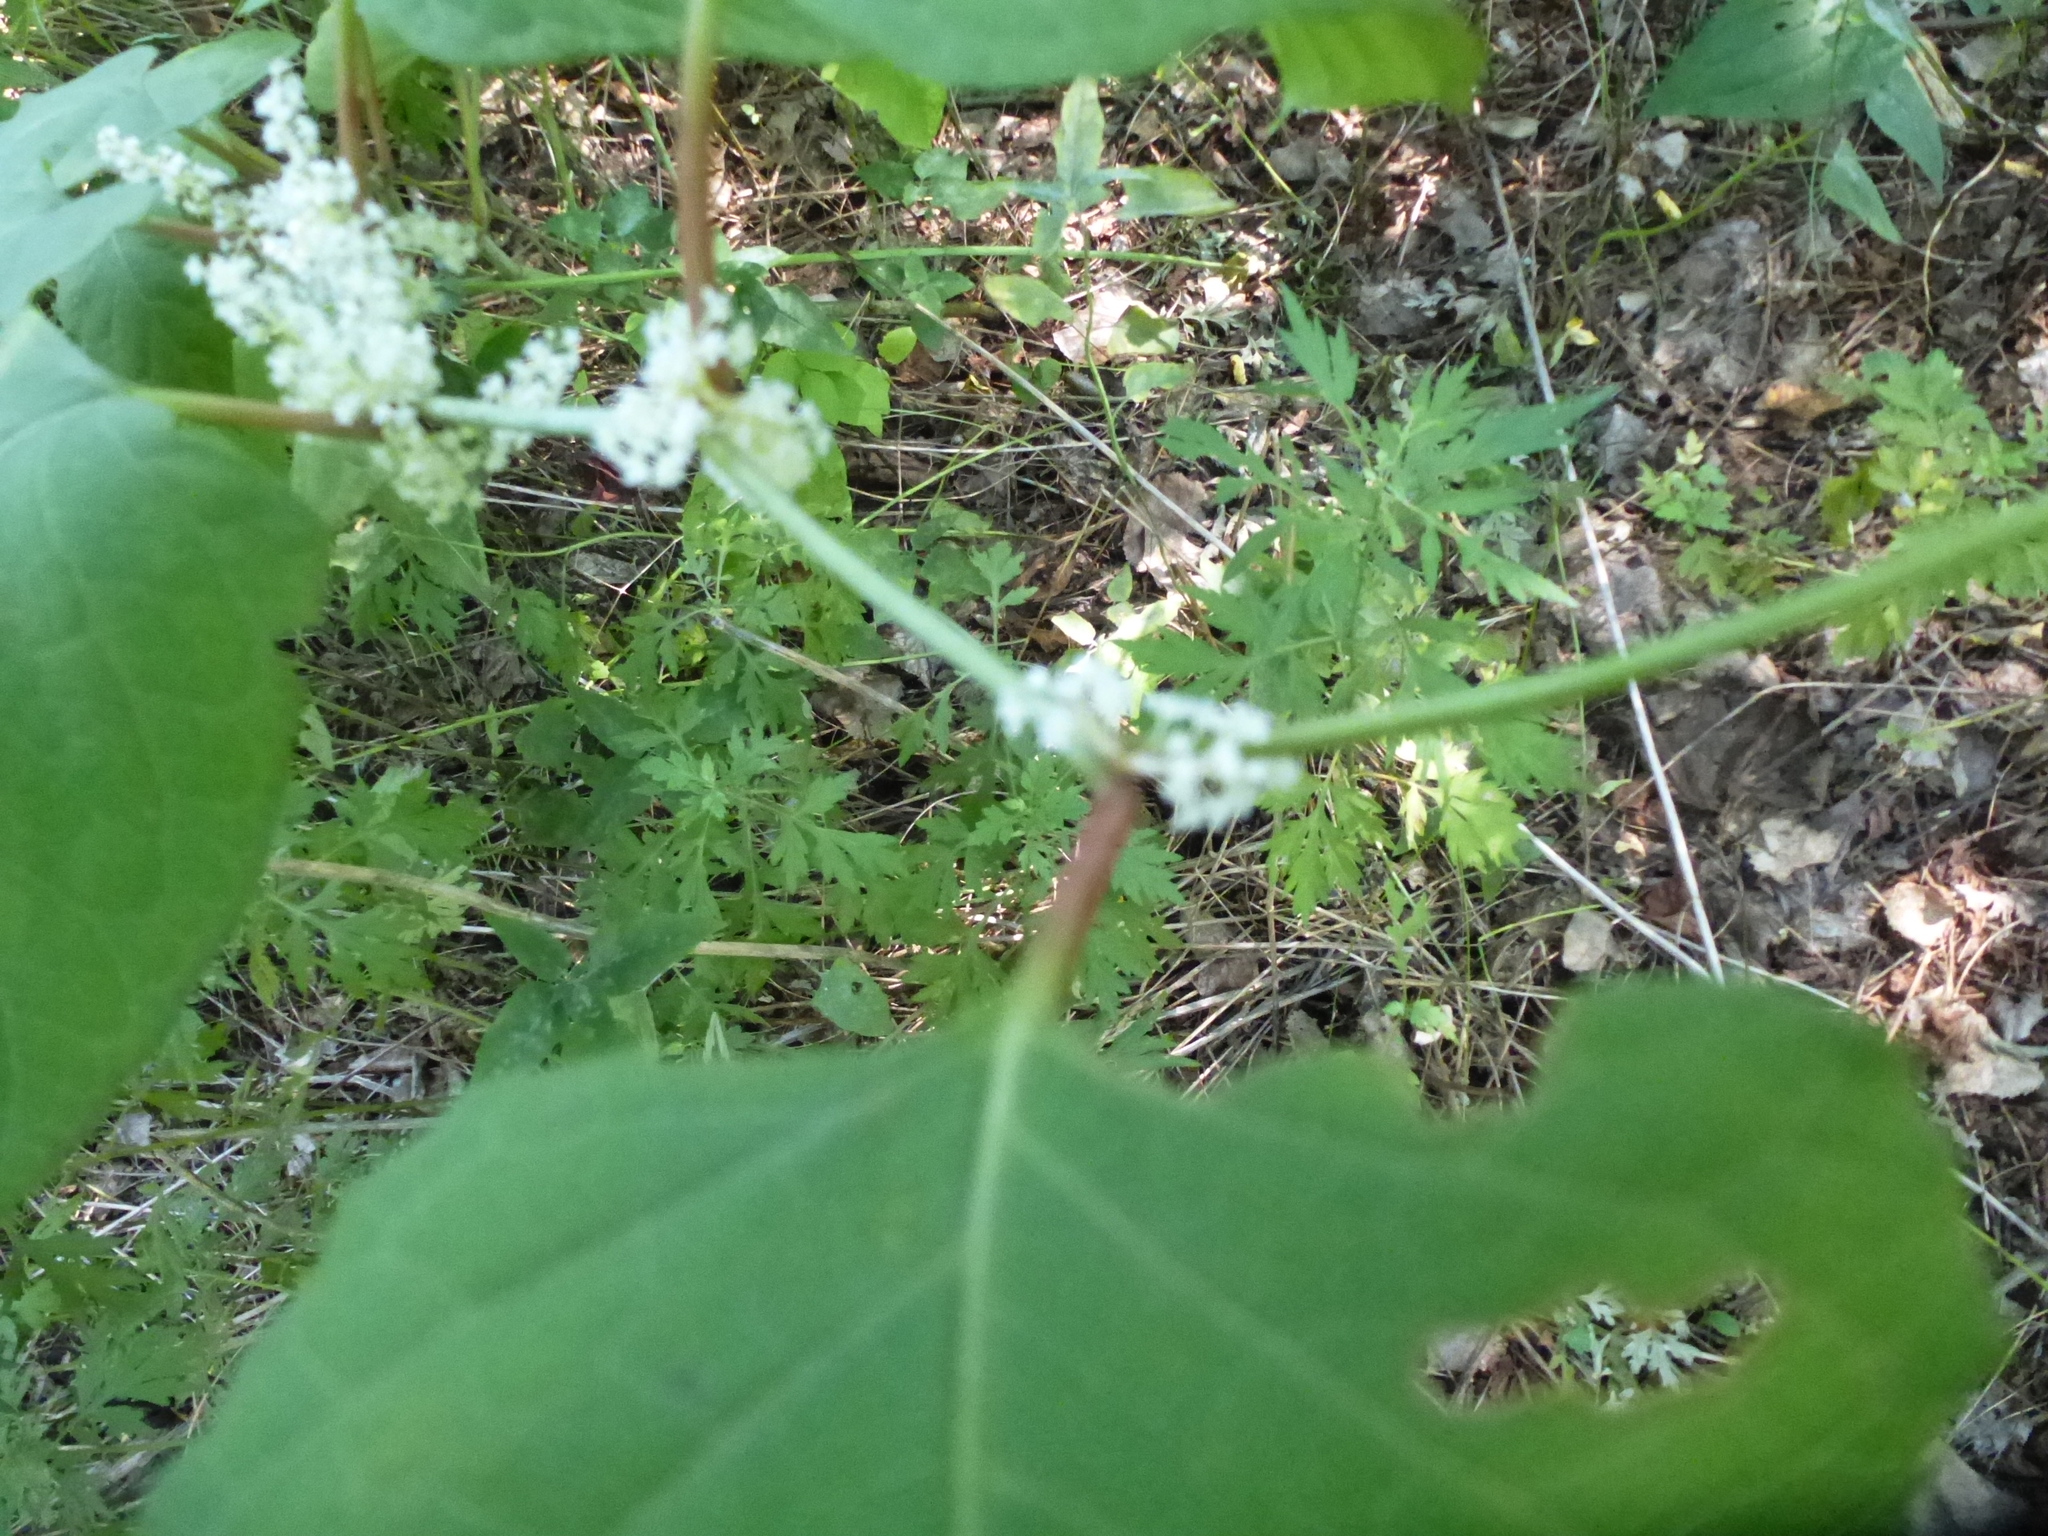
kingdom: Plantae
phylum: Tracheophyta
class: Magnoliopsida
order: Caryophyllales
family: Polygonaceae
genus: Reynoutria
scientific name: Reynoutria japonica
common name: Japanese knotweed
